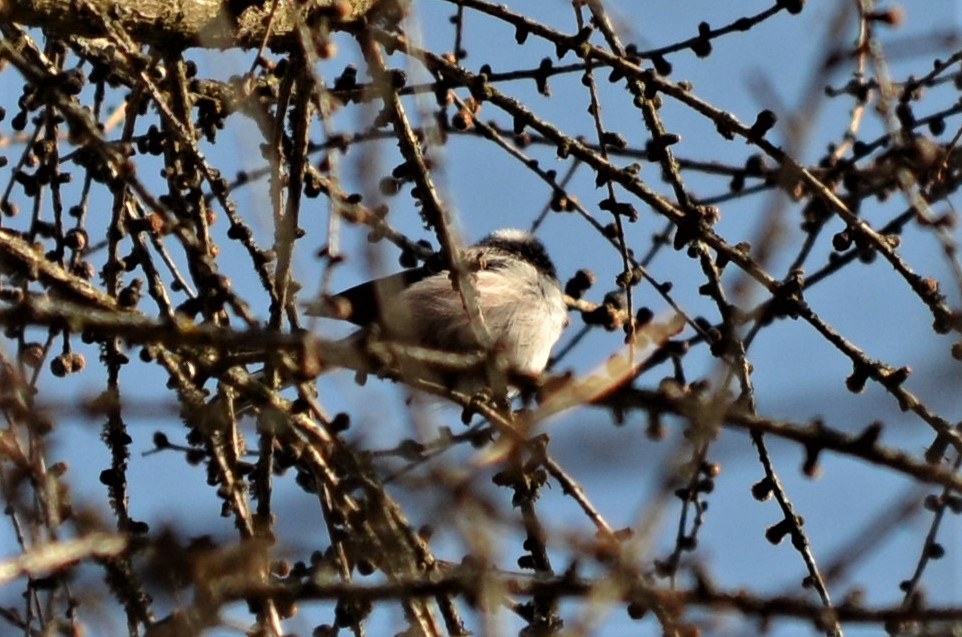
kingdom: Animalia
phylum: Chordata
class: Aves
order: Passeriformes
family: Aegithalidae
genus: Aegithalos
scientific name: Aegithalos caudatus
